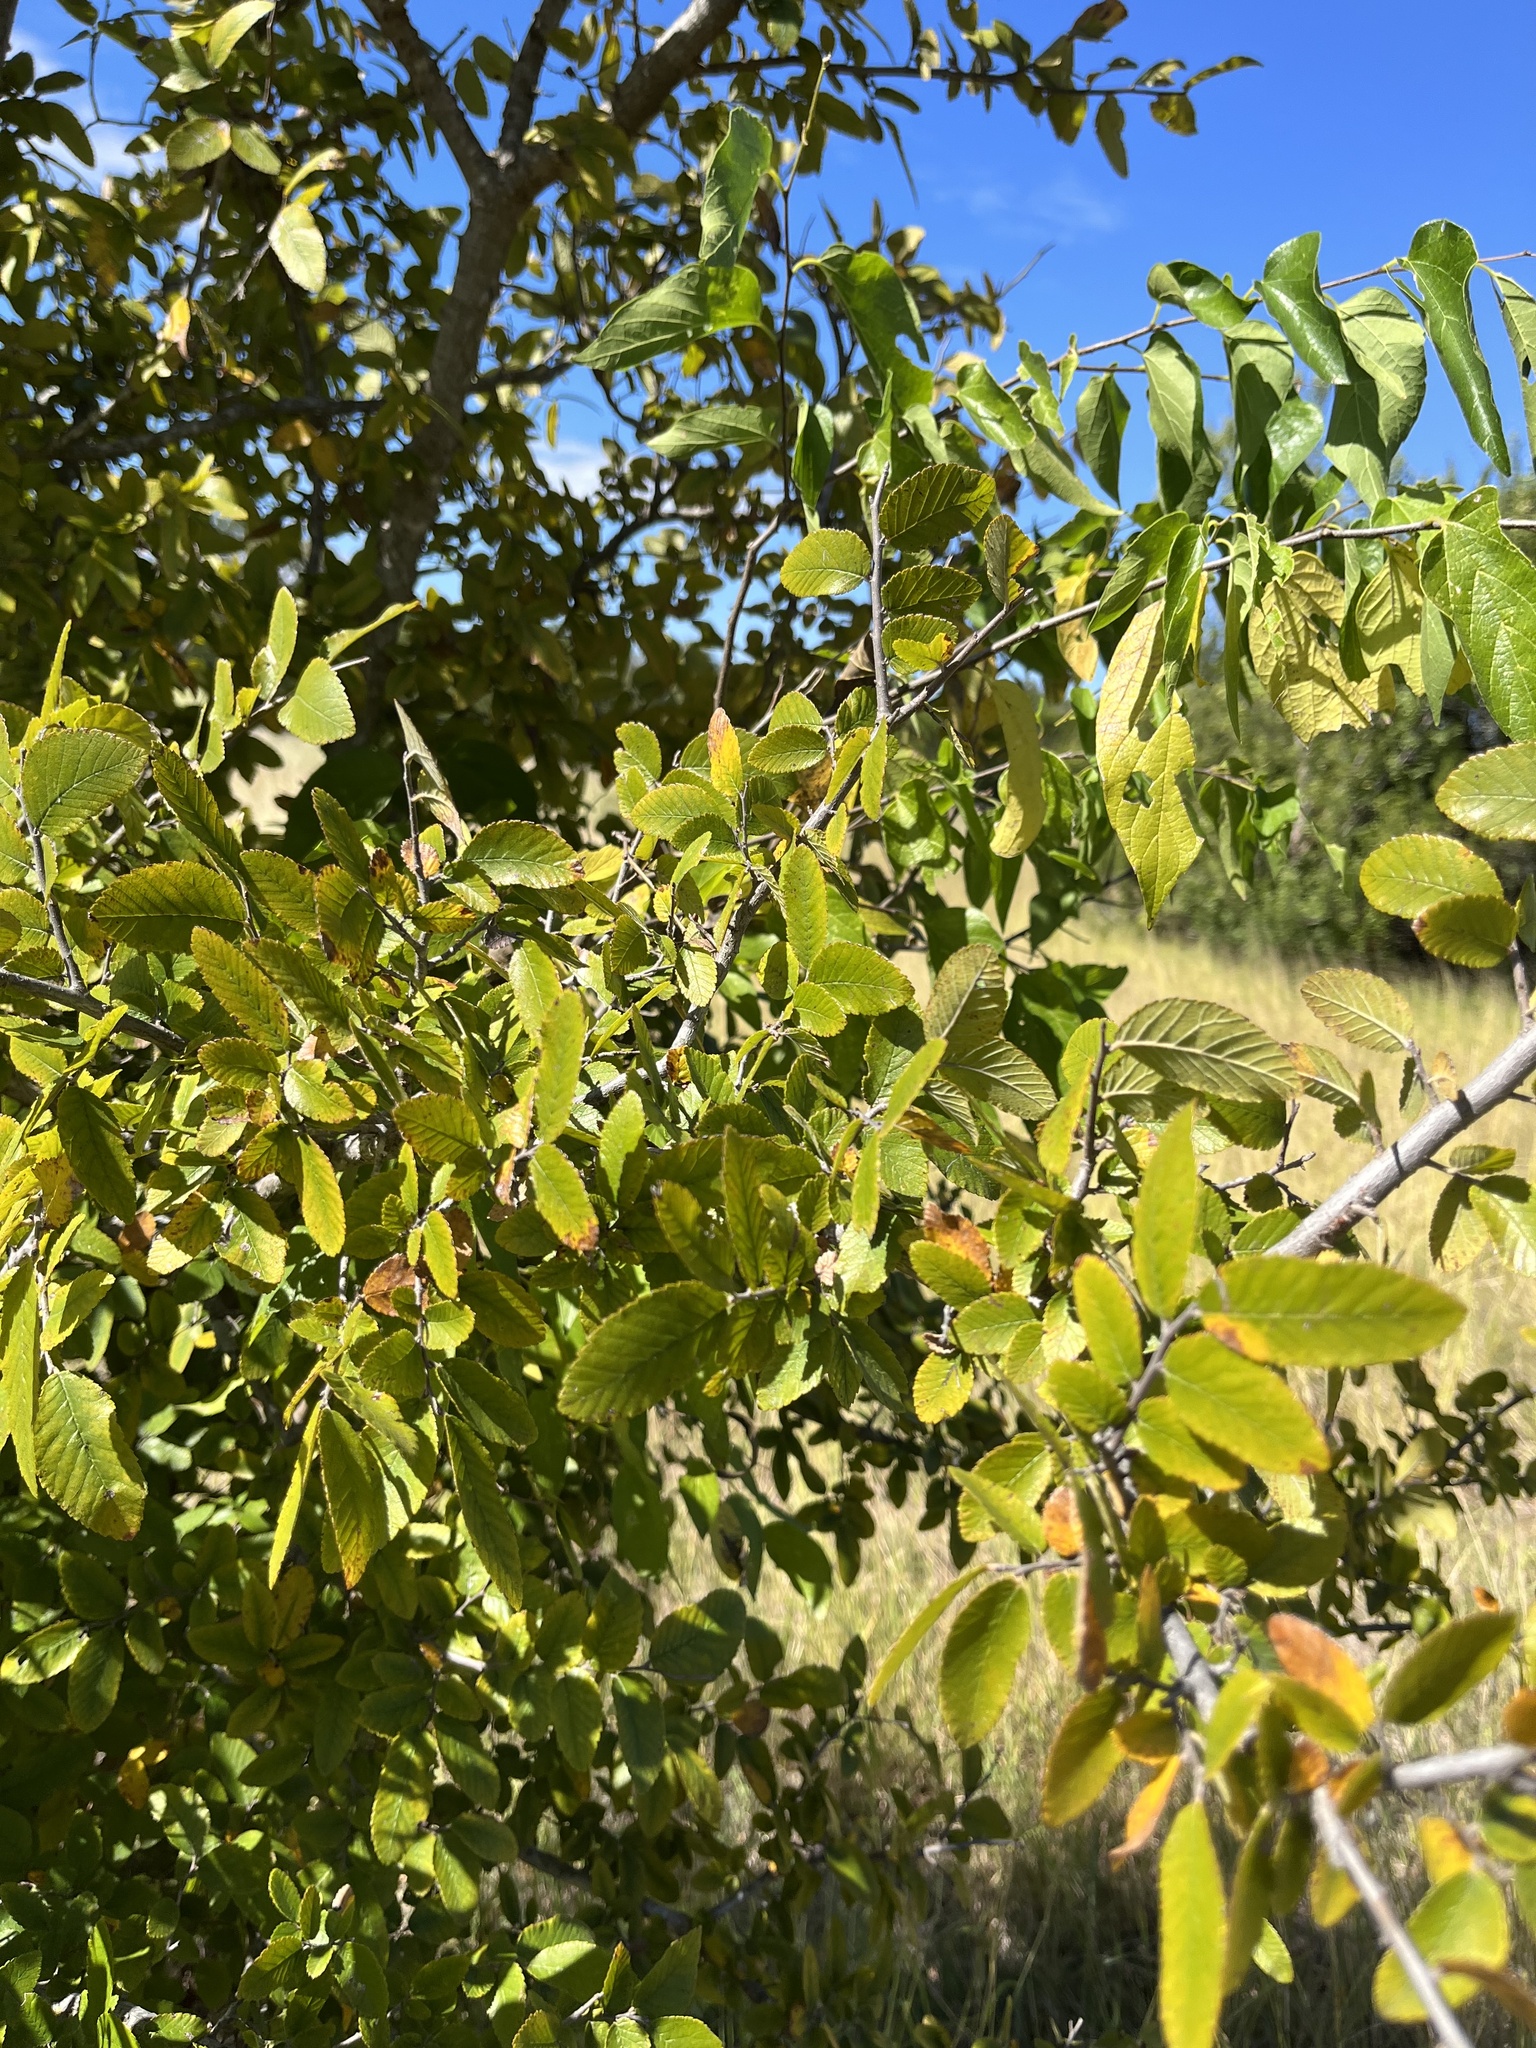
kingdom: Plantae
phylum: Tracheophyta
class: Magnoliopsida
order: Rosales
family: Ulmaceae
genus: Ulmus
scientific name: Ulmus crassifolia
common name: Basket elm
